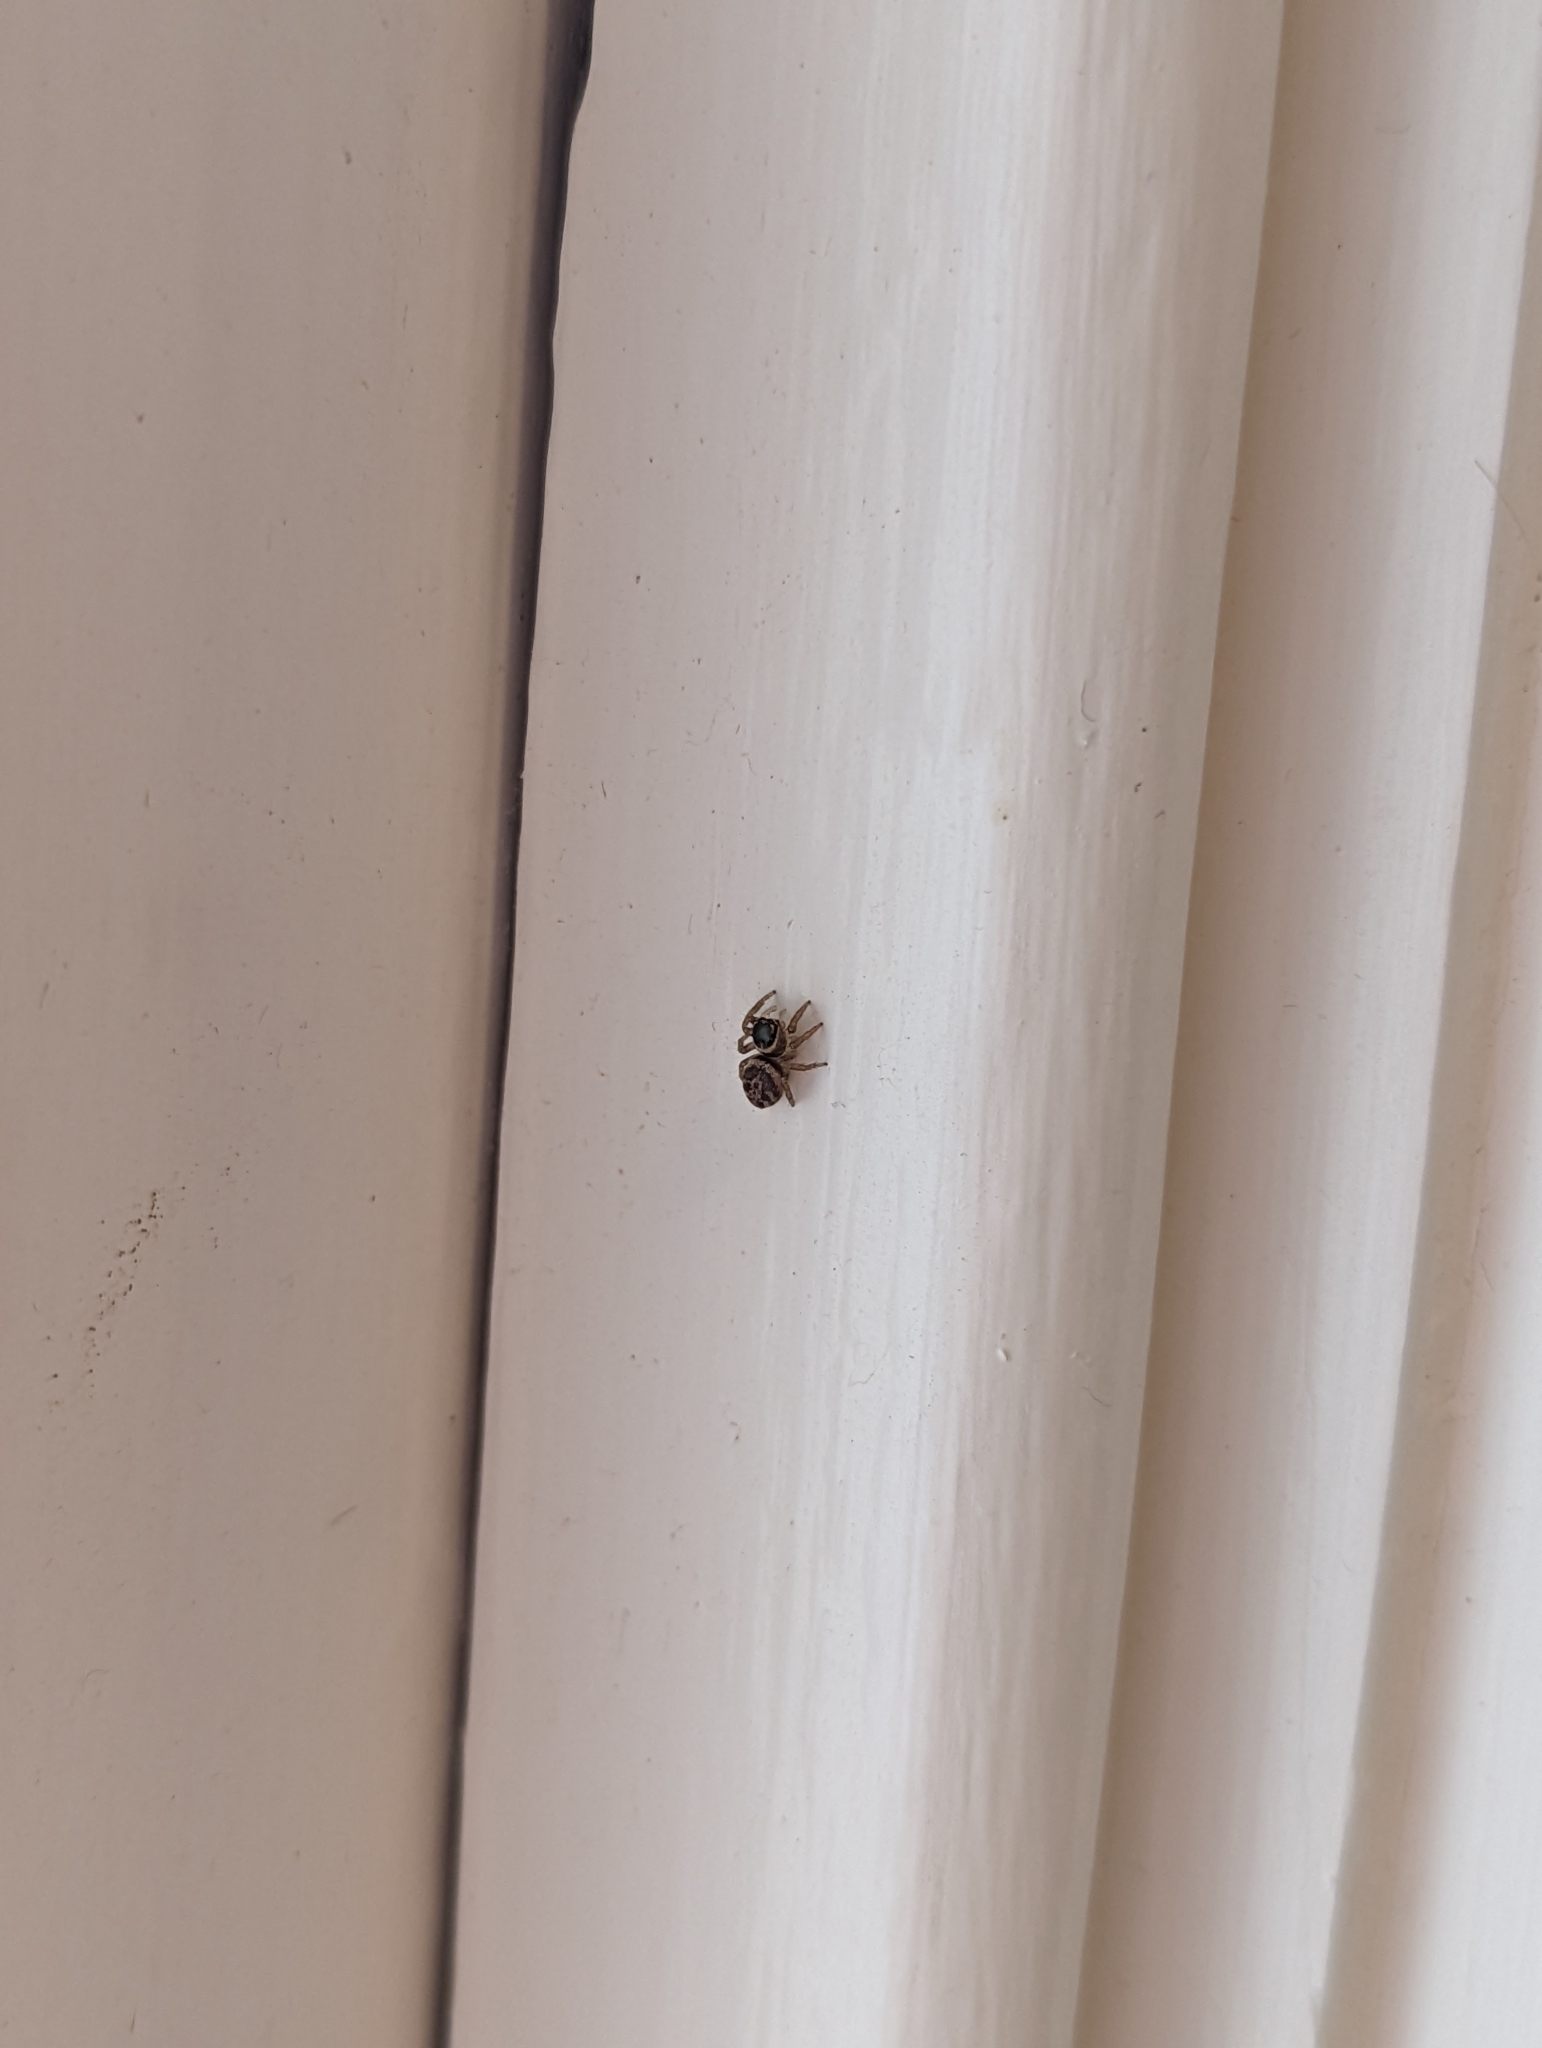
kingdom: Animalia
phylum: Arthropoda
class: Arachnida
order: Araneae
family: Salticidae
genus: Maratus
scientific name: Maratus griseus
